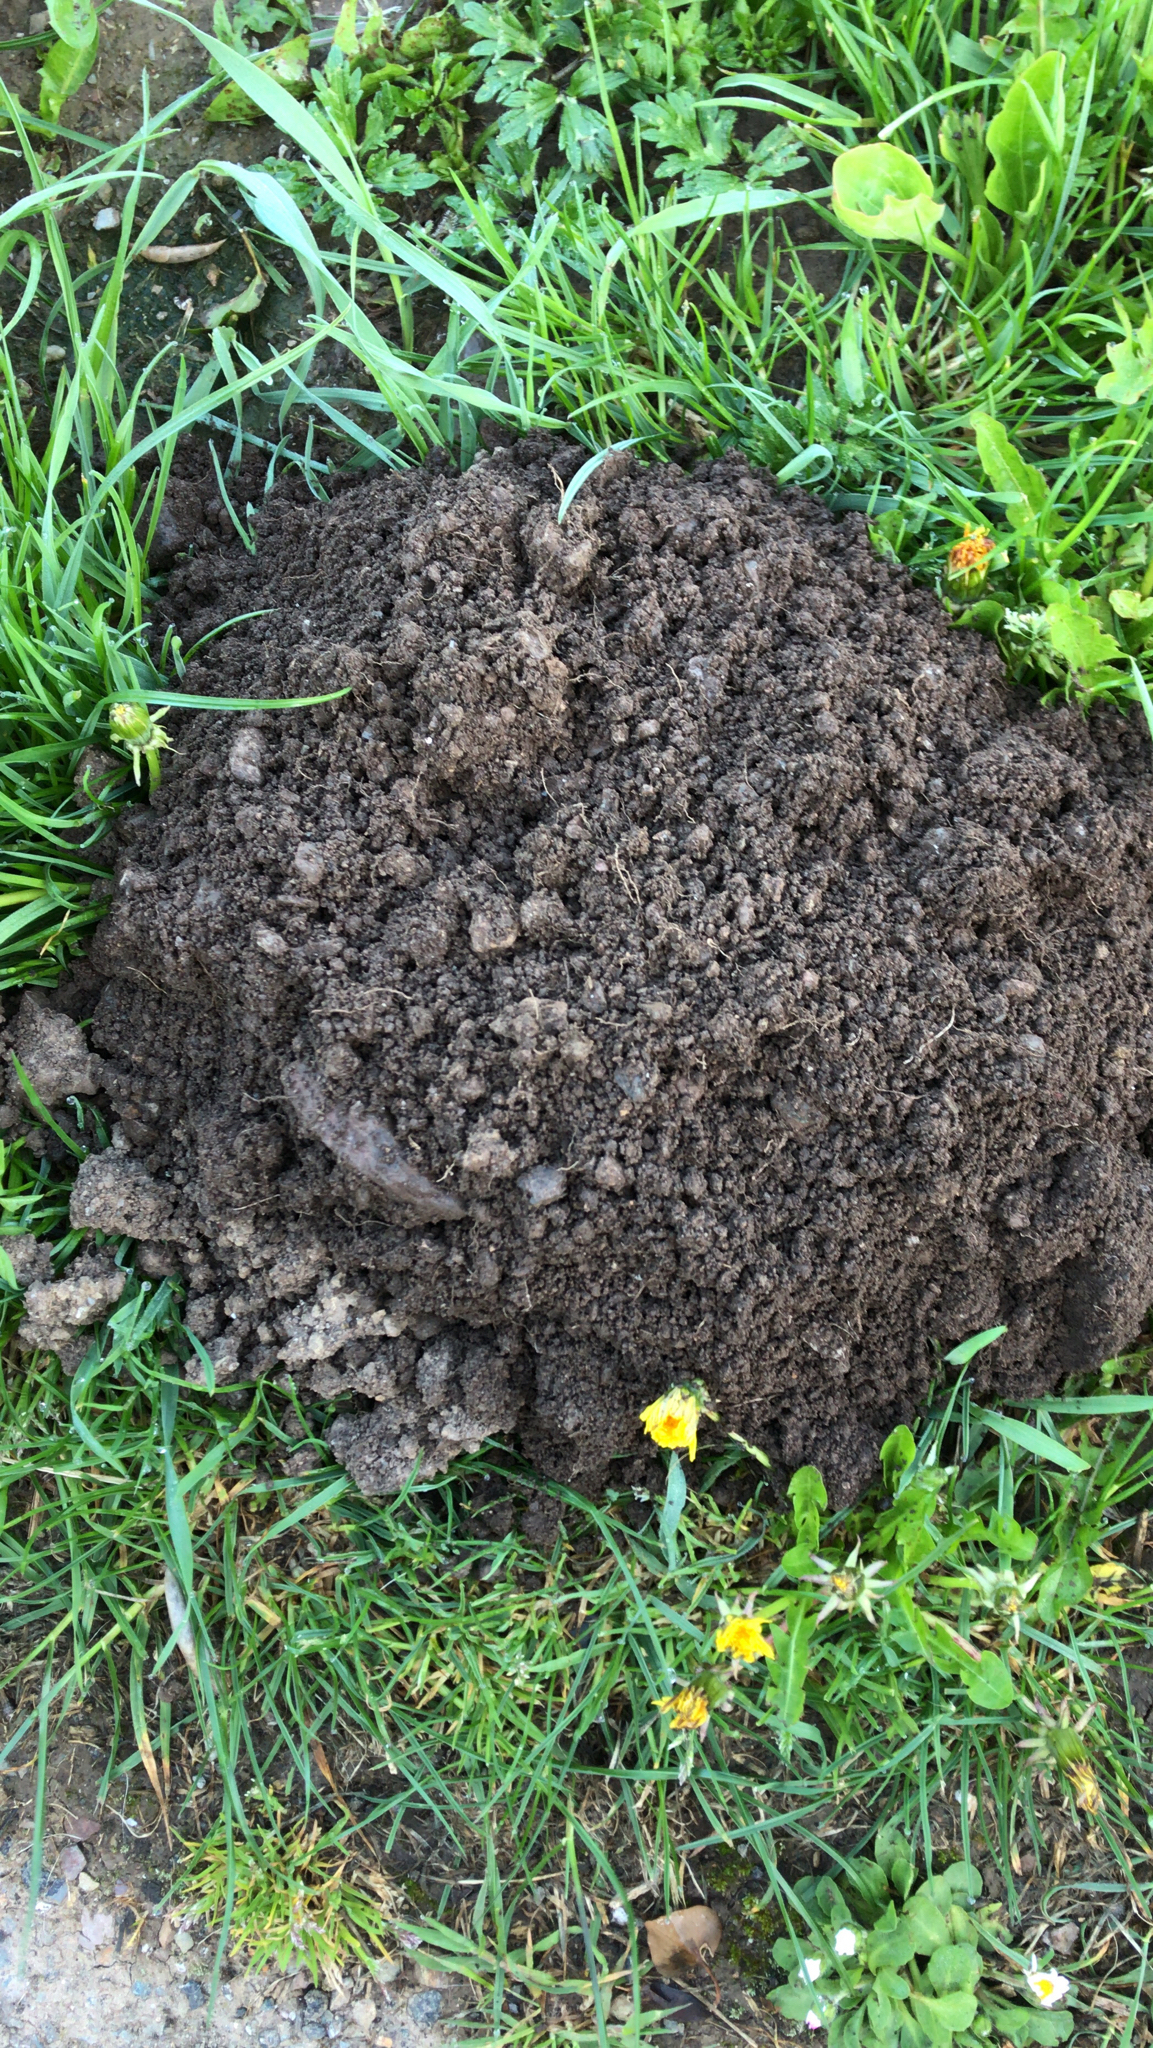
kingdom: Animalia
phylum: Chordata
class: Mammalia
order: Soricomorpha
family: Talpidae
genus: Talpa
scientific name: Talpa europaea
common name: European mole
